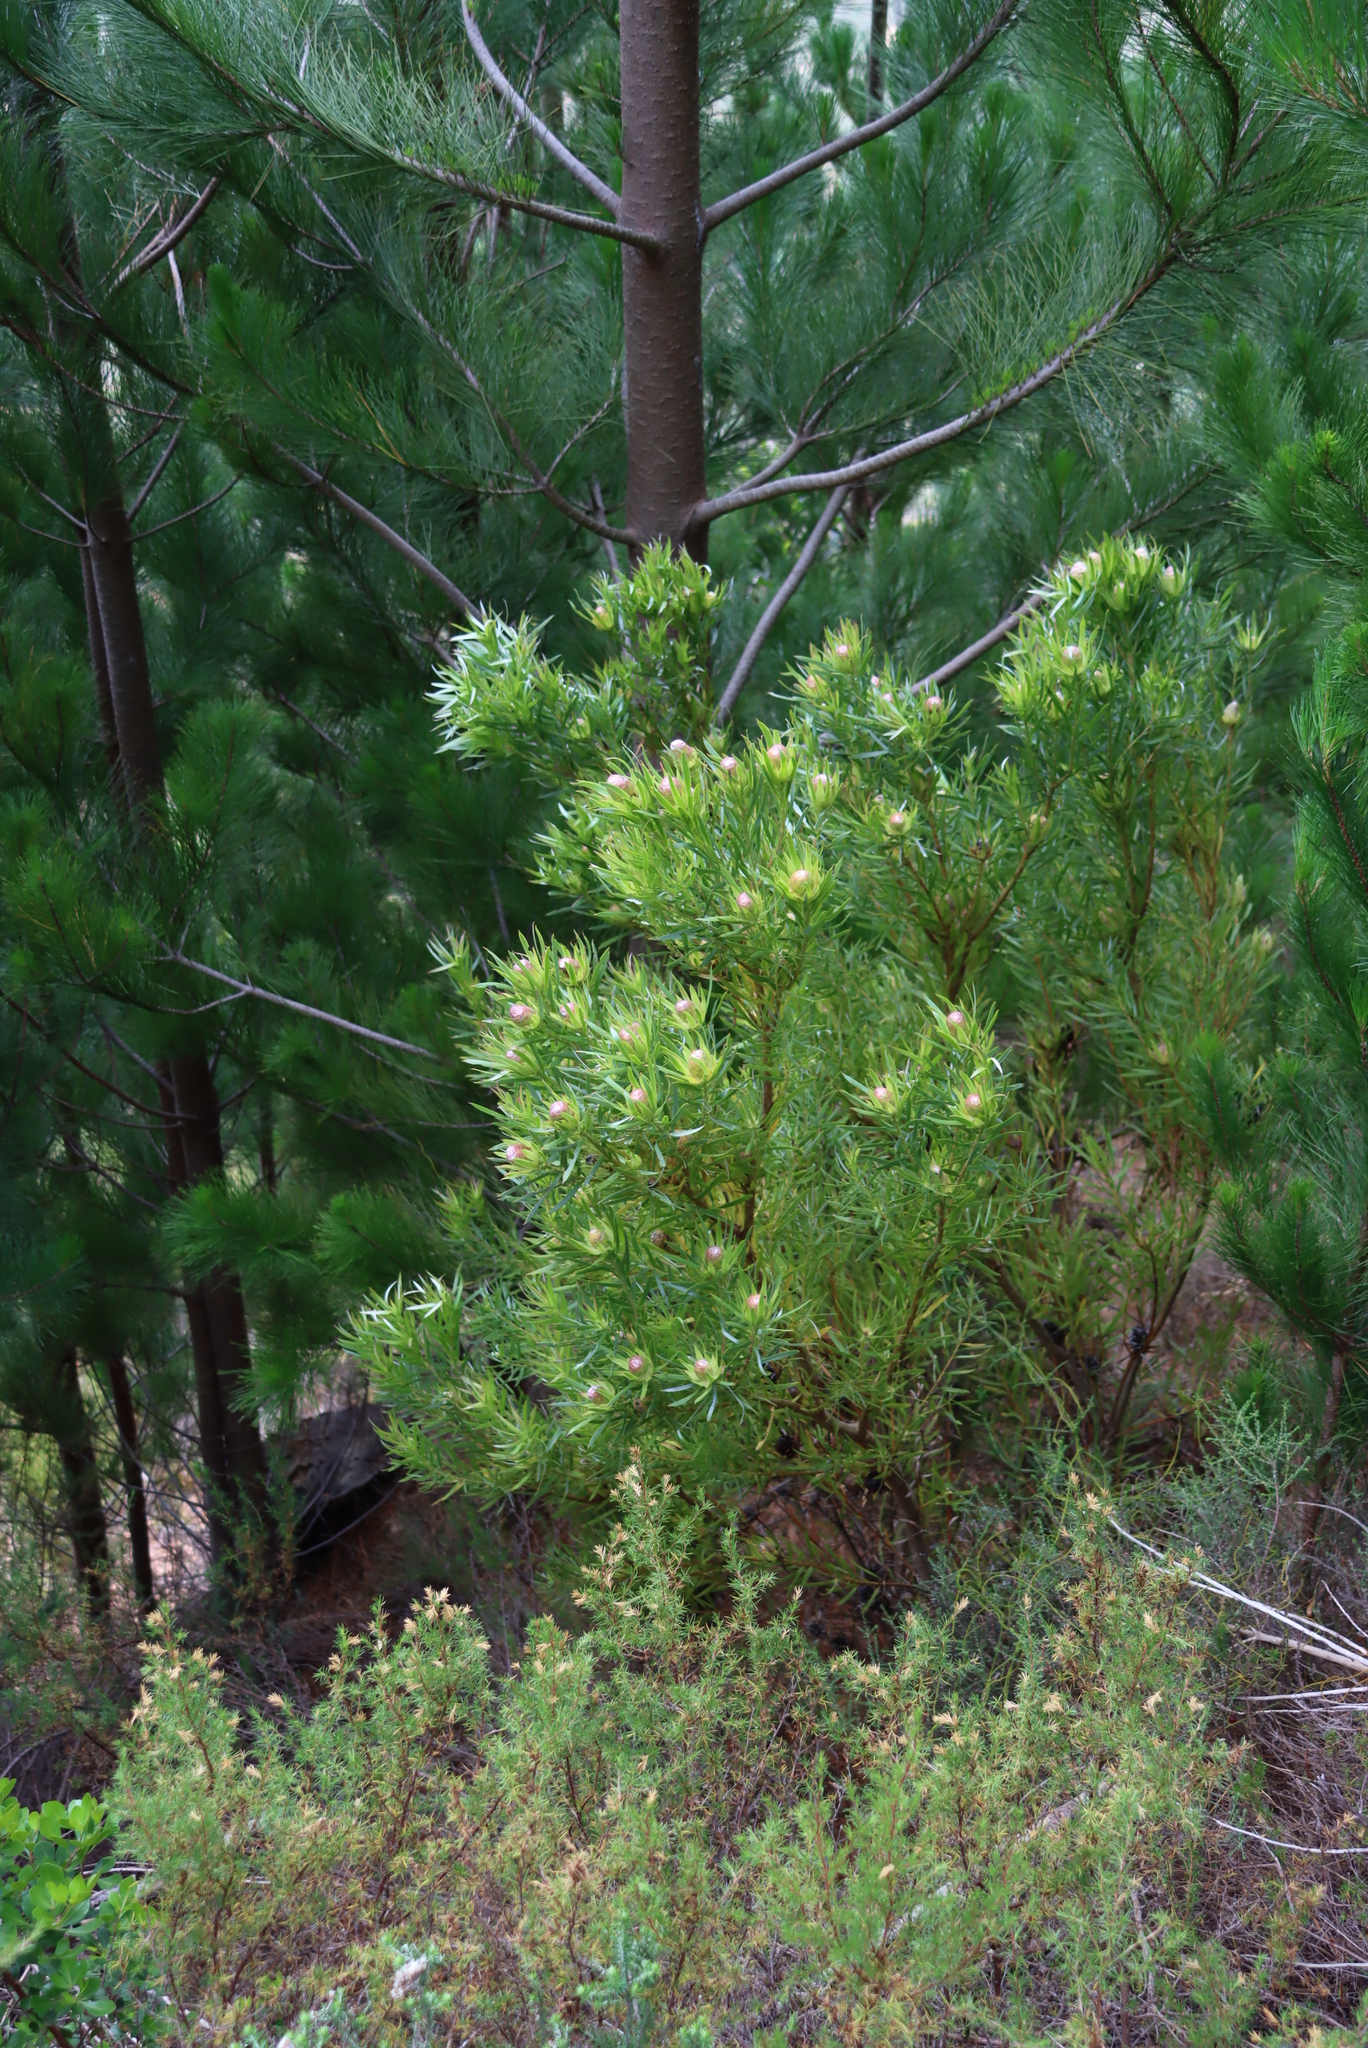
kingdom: Plantae
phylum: Tracheophyta
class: Magnoliopsida
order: Proteales
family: Proteaceae
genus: Leucadendron
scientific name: Leucadendron xanthoconus
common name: Sickle-leaf conebush
